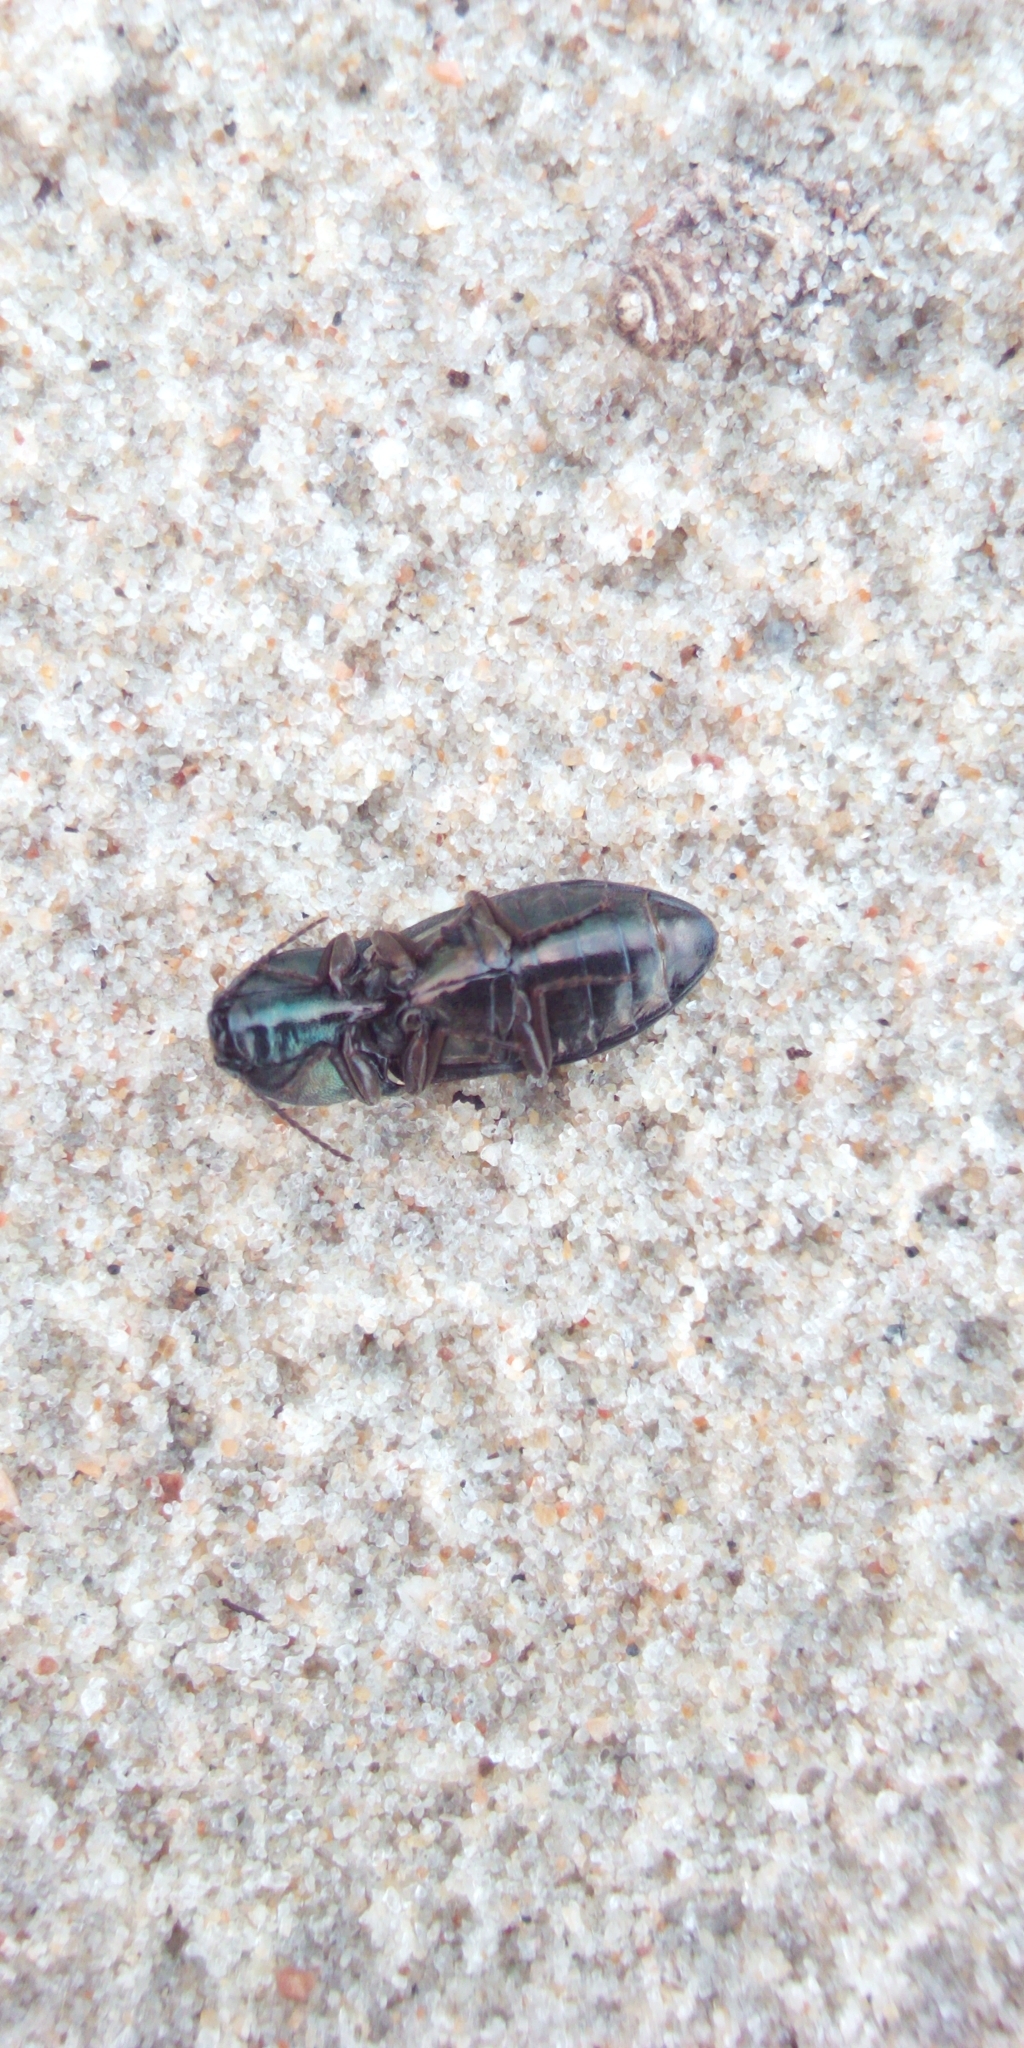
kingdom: Animalia
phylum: Arthropoda
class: Insecta
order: Coleoptera
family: Elateridae
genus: Selatosomus
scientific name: Selatosomus aeneus
